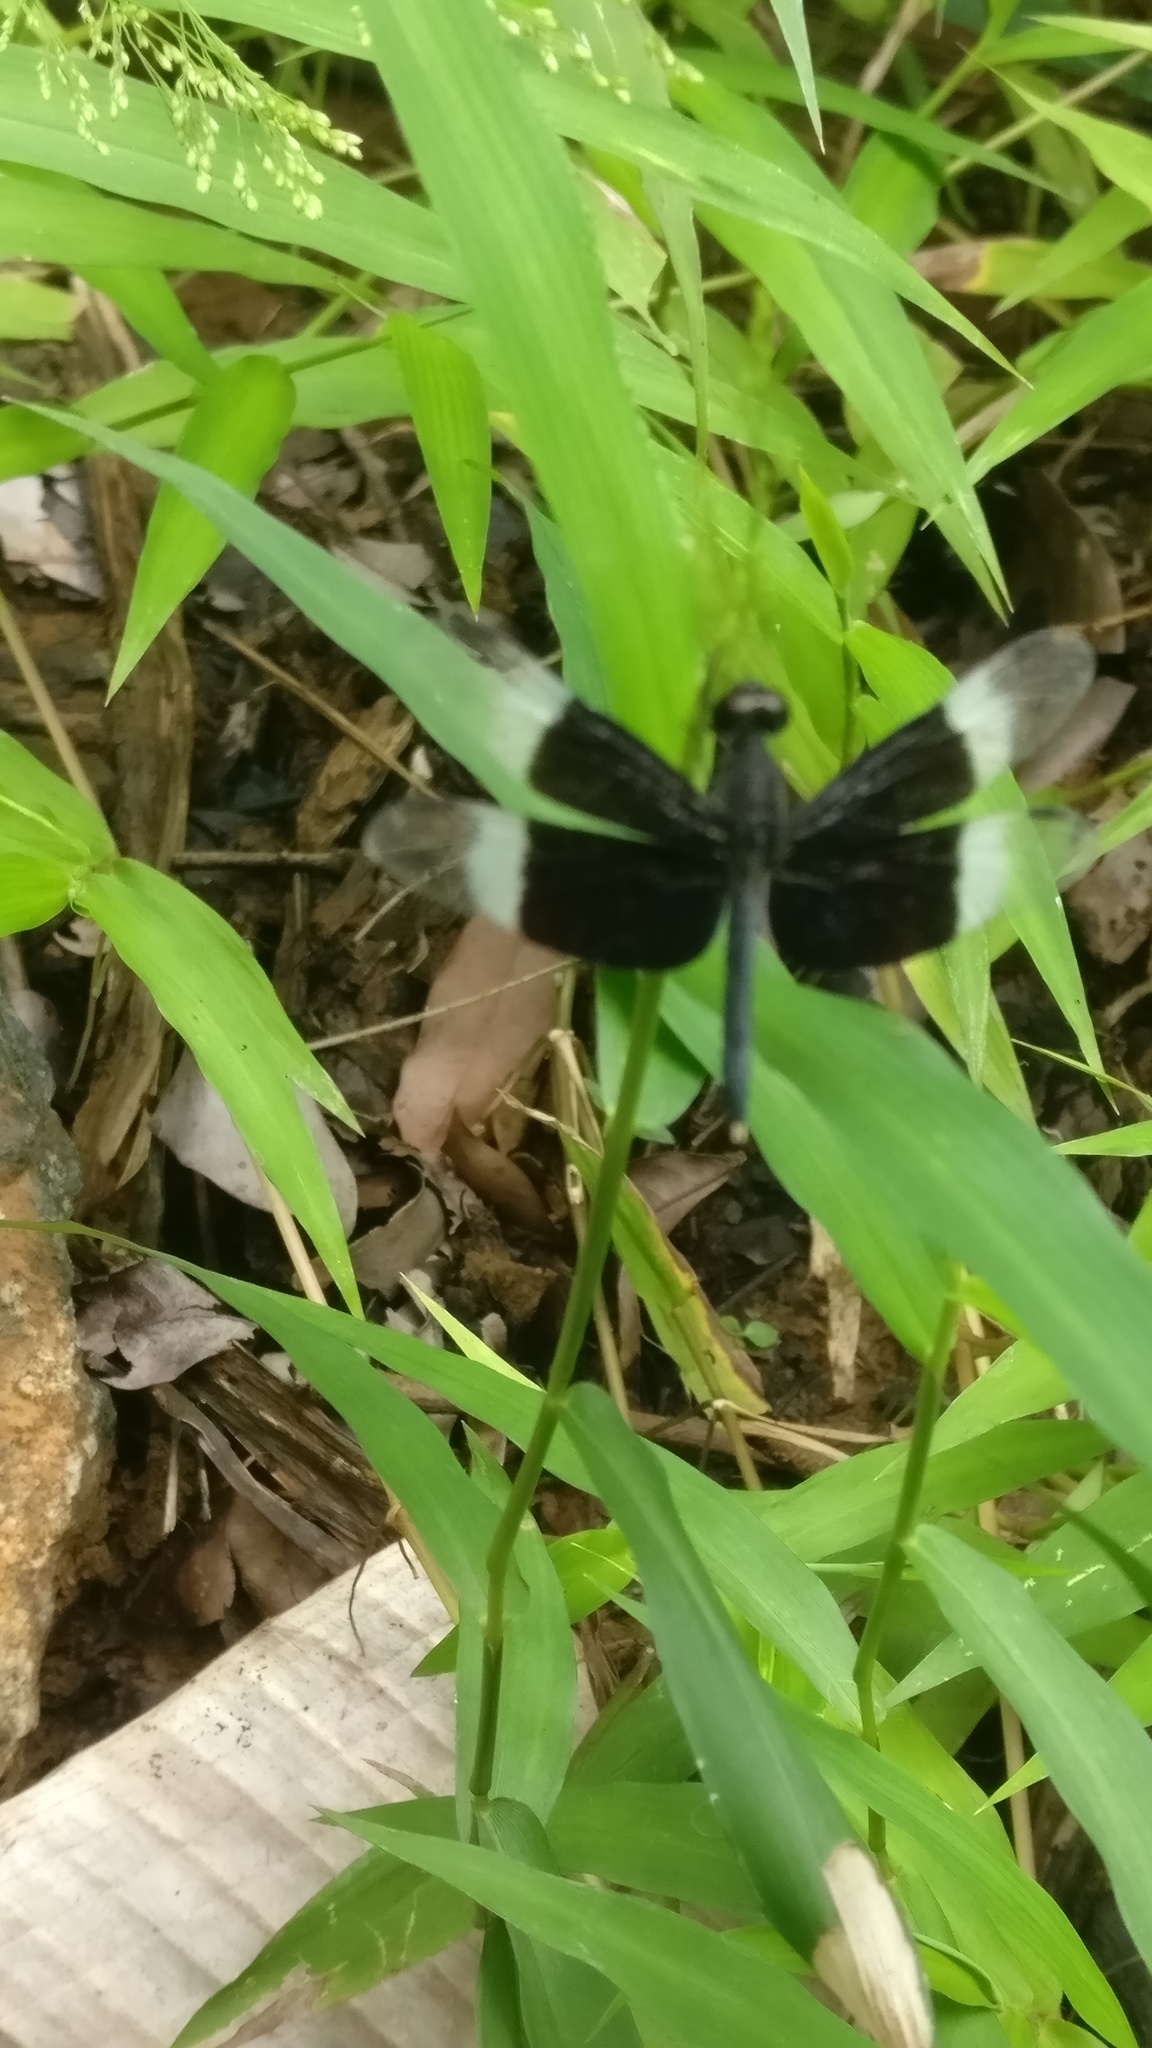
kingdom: Animalia
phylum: Arthropoda
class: Insecta
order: Odonata
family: Libellulidae
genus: Neurothemis
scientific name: Neurothemis tullia
